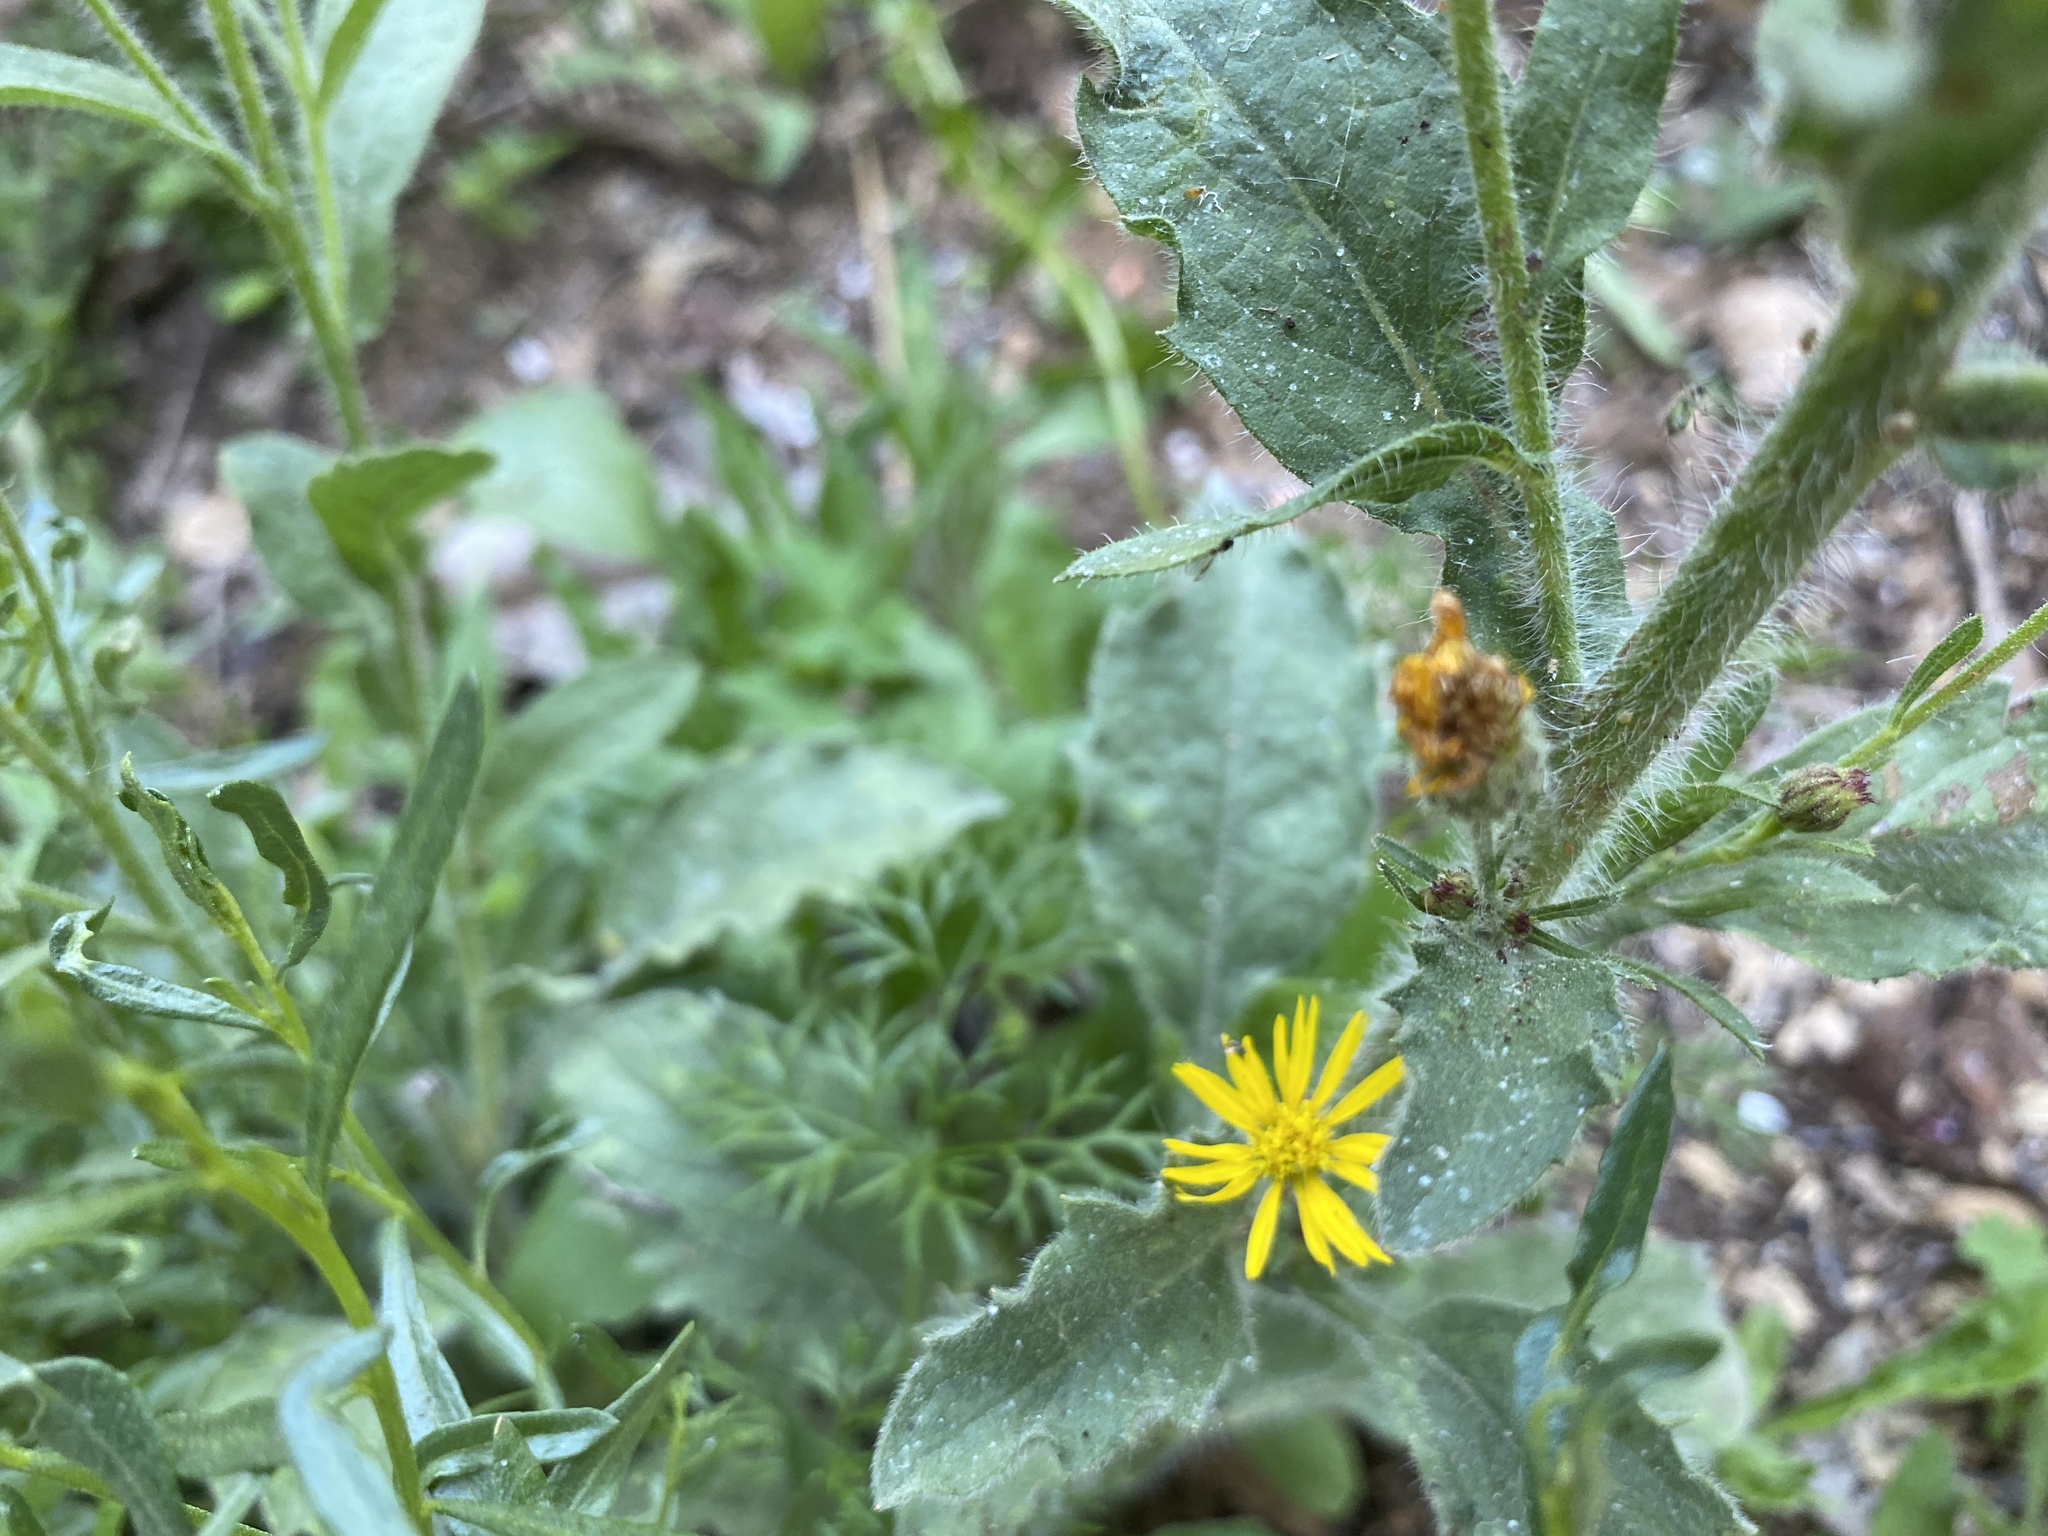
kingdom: Plantae
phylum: Tracheophyta
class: Magnoliopsida
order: Asterales
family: Asteraceae
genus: Heterotheca
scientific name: Heterotheca grandiflora
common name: Telegraphweed
